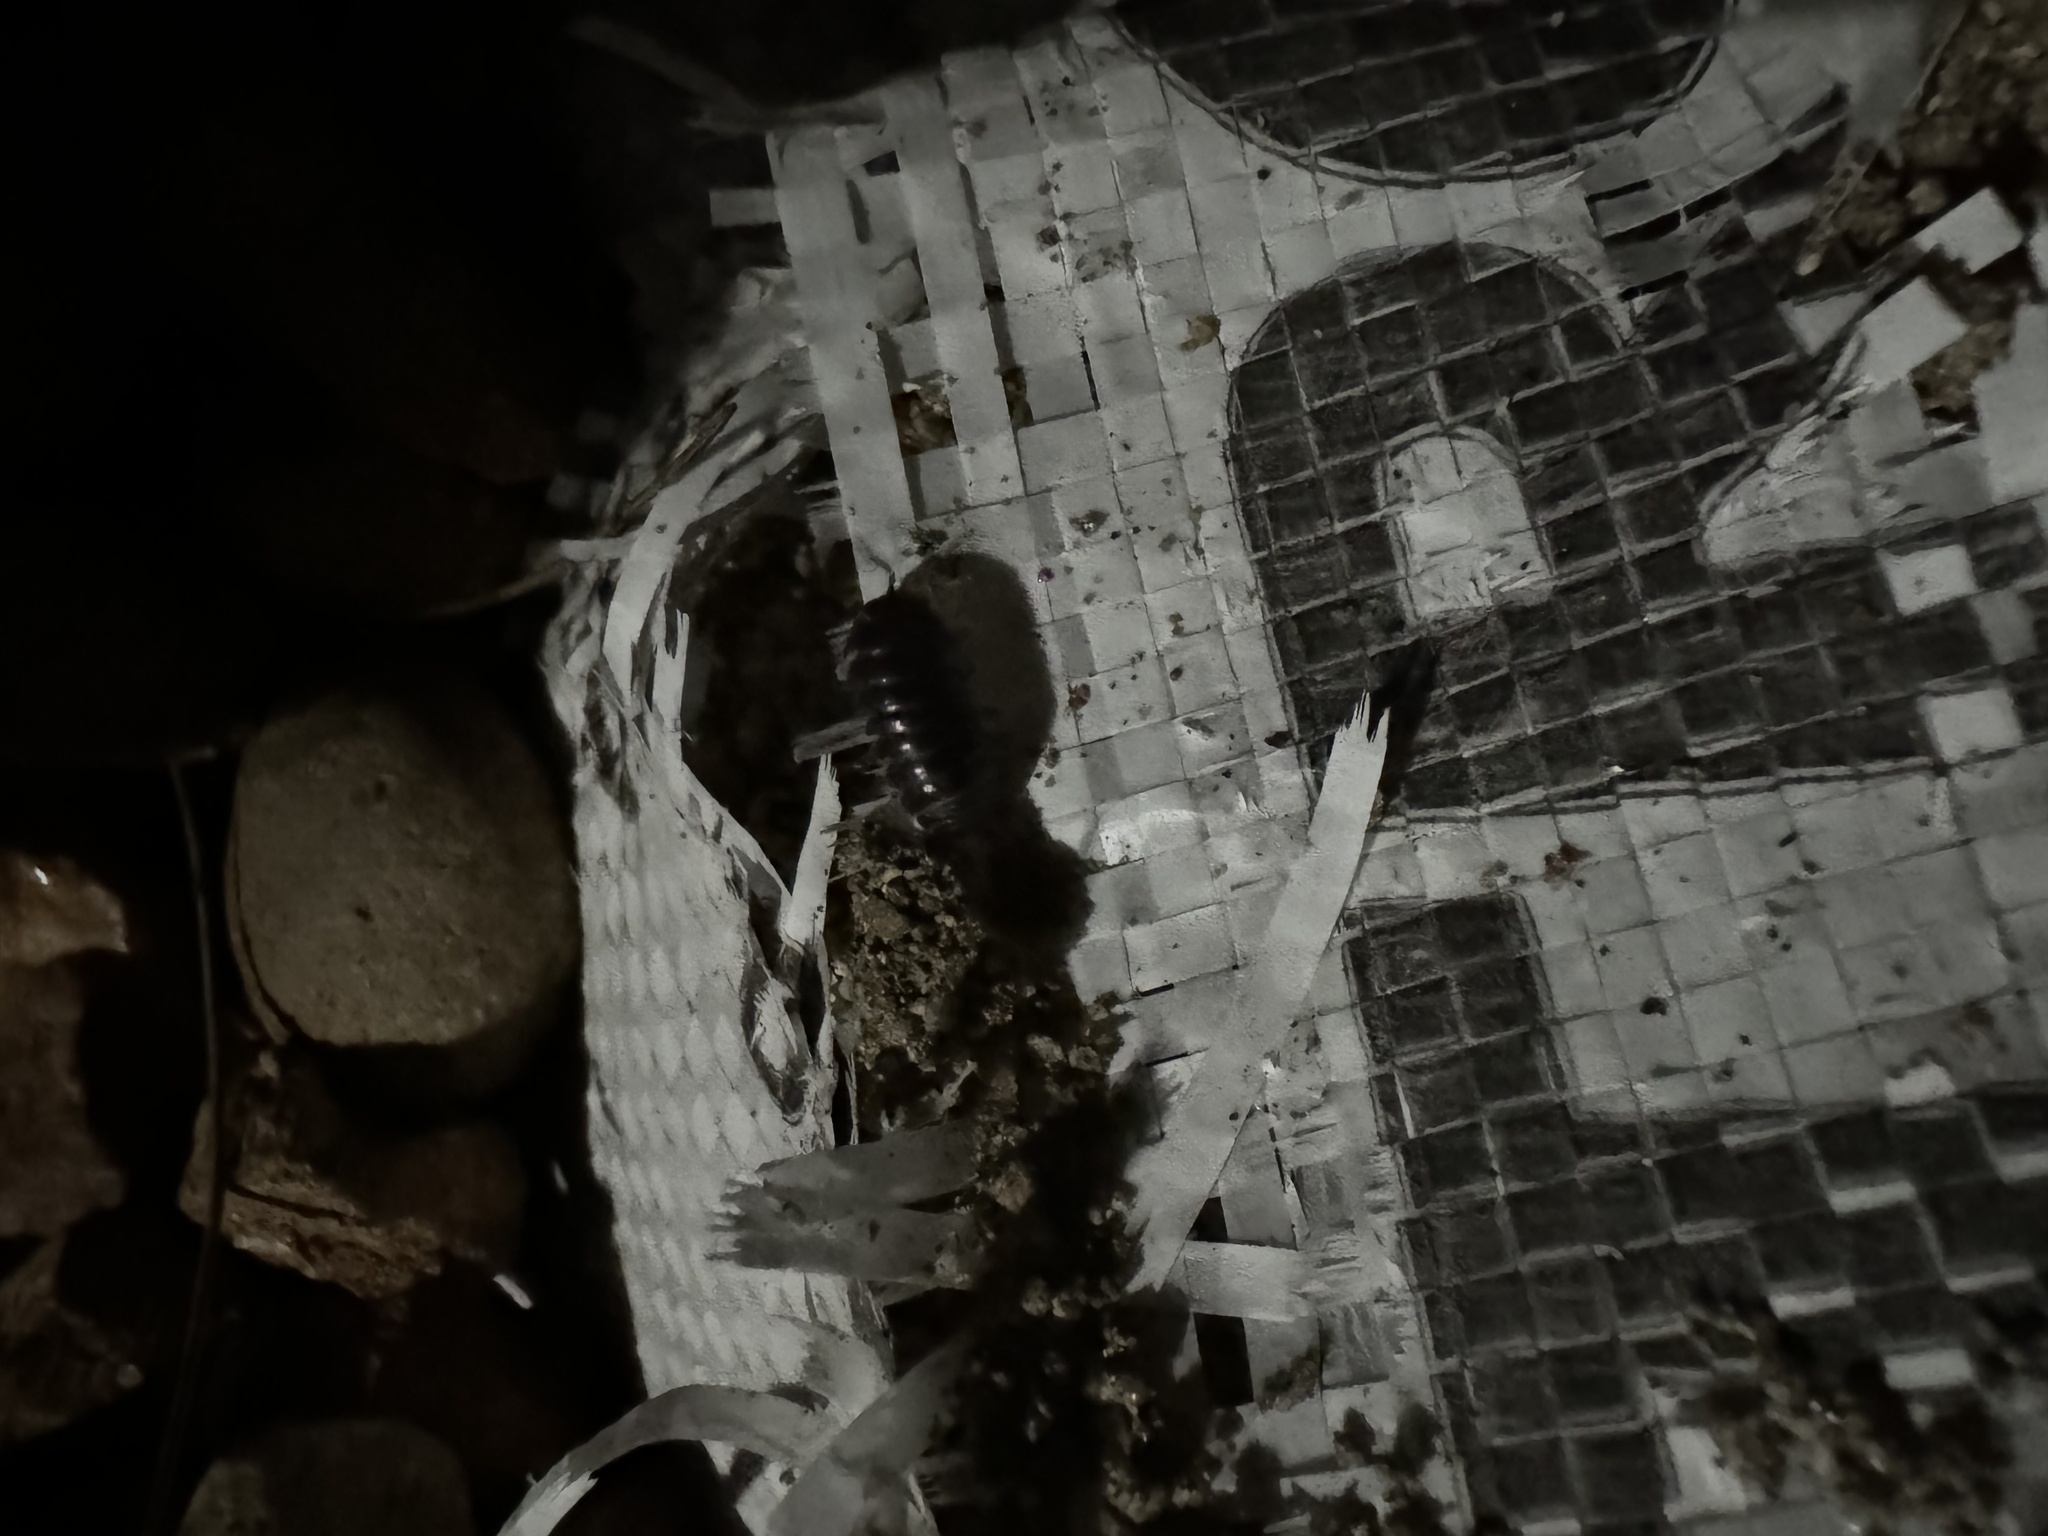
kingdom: Animalia
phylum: Arthropoda
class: Malacostraca
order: Isopoda
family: Armadillidiidae
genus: Armadillidium
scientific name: Armadillidium vulgare
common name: Common pill woodlouse
